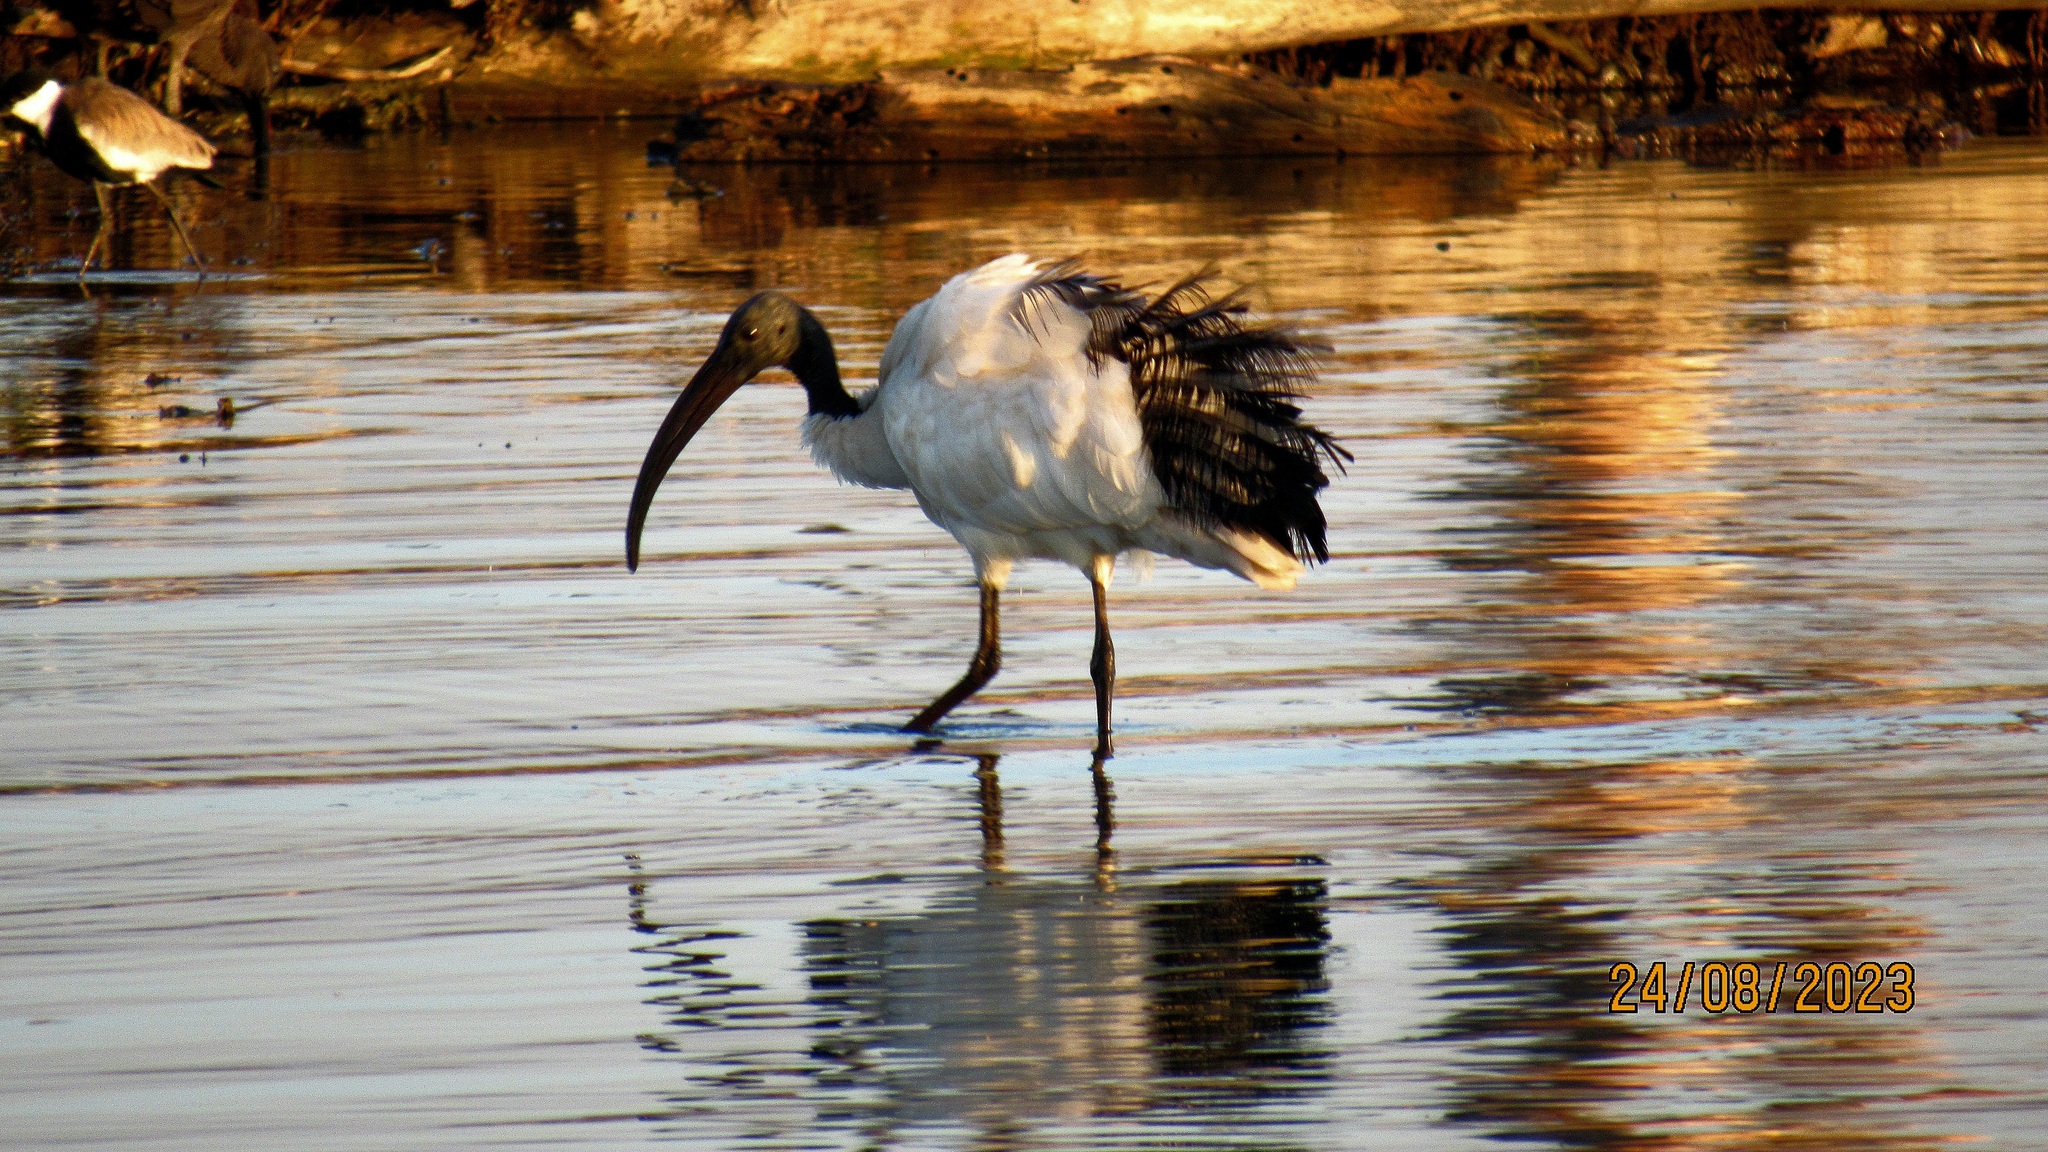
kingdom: Animalia
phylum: Chordata
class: Aves
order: Pelecaniformes
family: Threskiornithidae
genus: Threskiornis
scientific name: Threskiornis aethiopicus
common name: Sacred ibis
